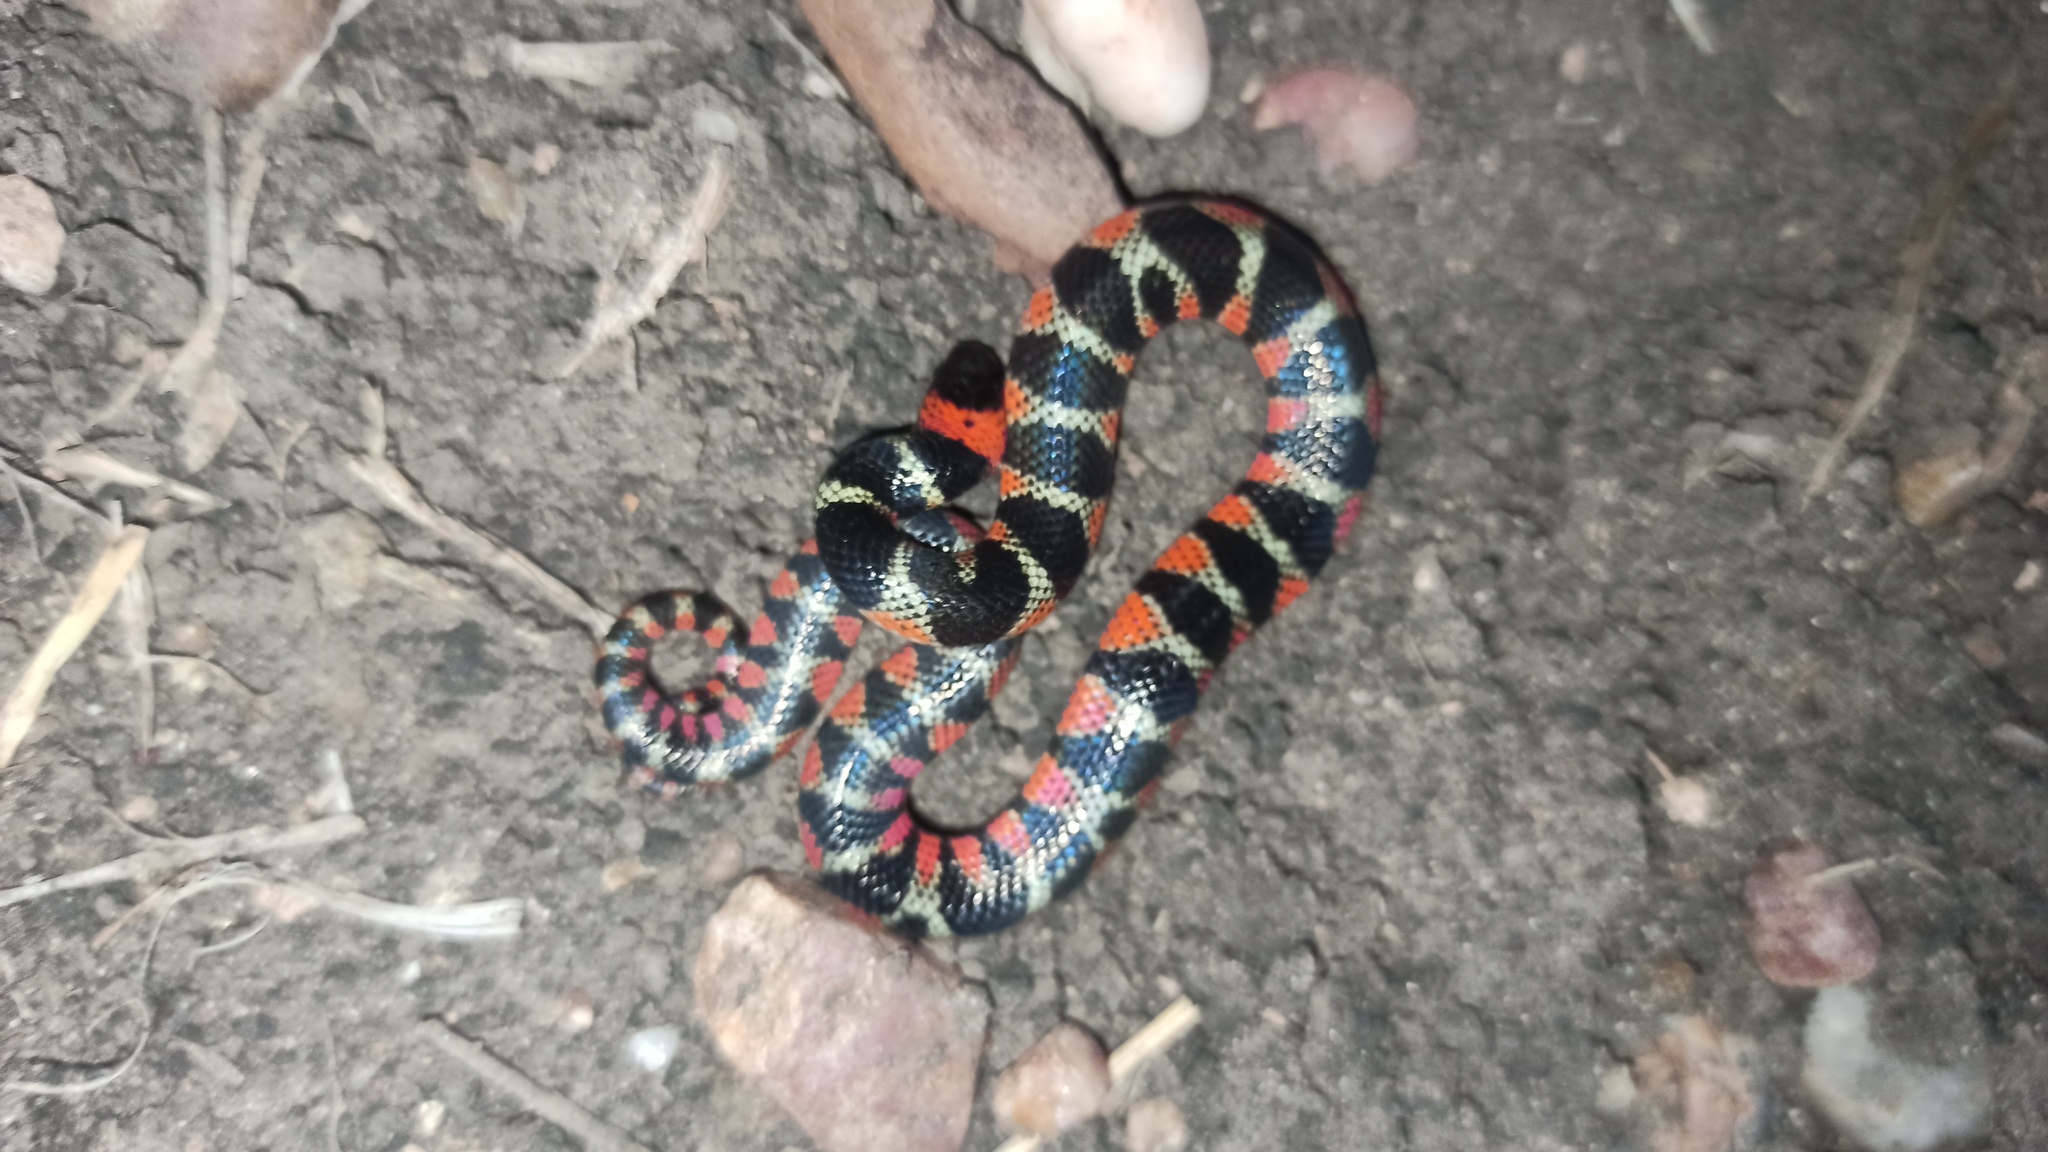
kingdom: Animalia
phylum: Chordata
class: Squamata
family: Colubridae
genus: Oxyrhopus
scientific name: Oxyrhopus rhombifer
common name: Amazon false coral snake
